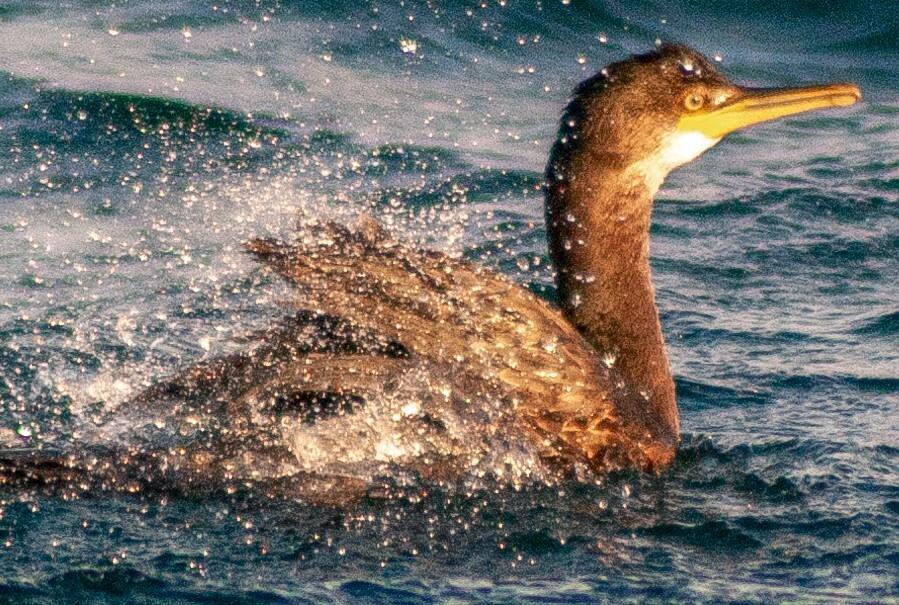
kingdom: Animalia
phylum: Chordata
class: Aves
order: Suliformes
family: Phalacrocoracidae
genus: Phalacrocorax
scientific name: Phalacrocorax aristotelis
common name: European shag
